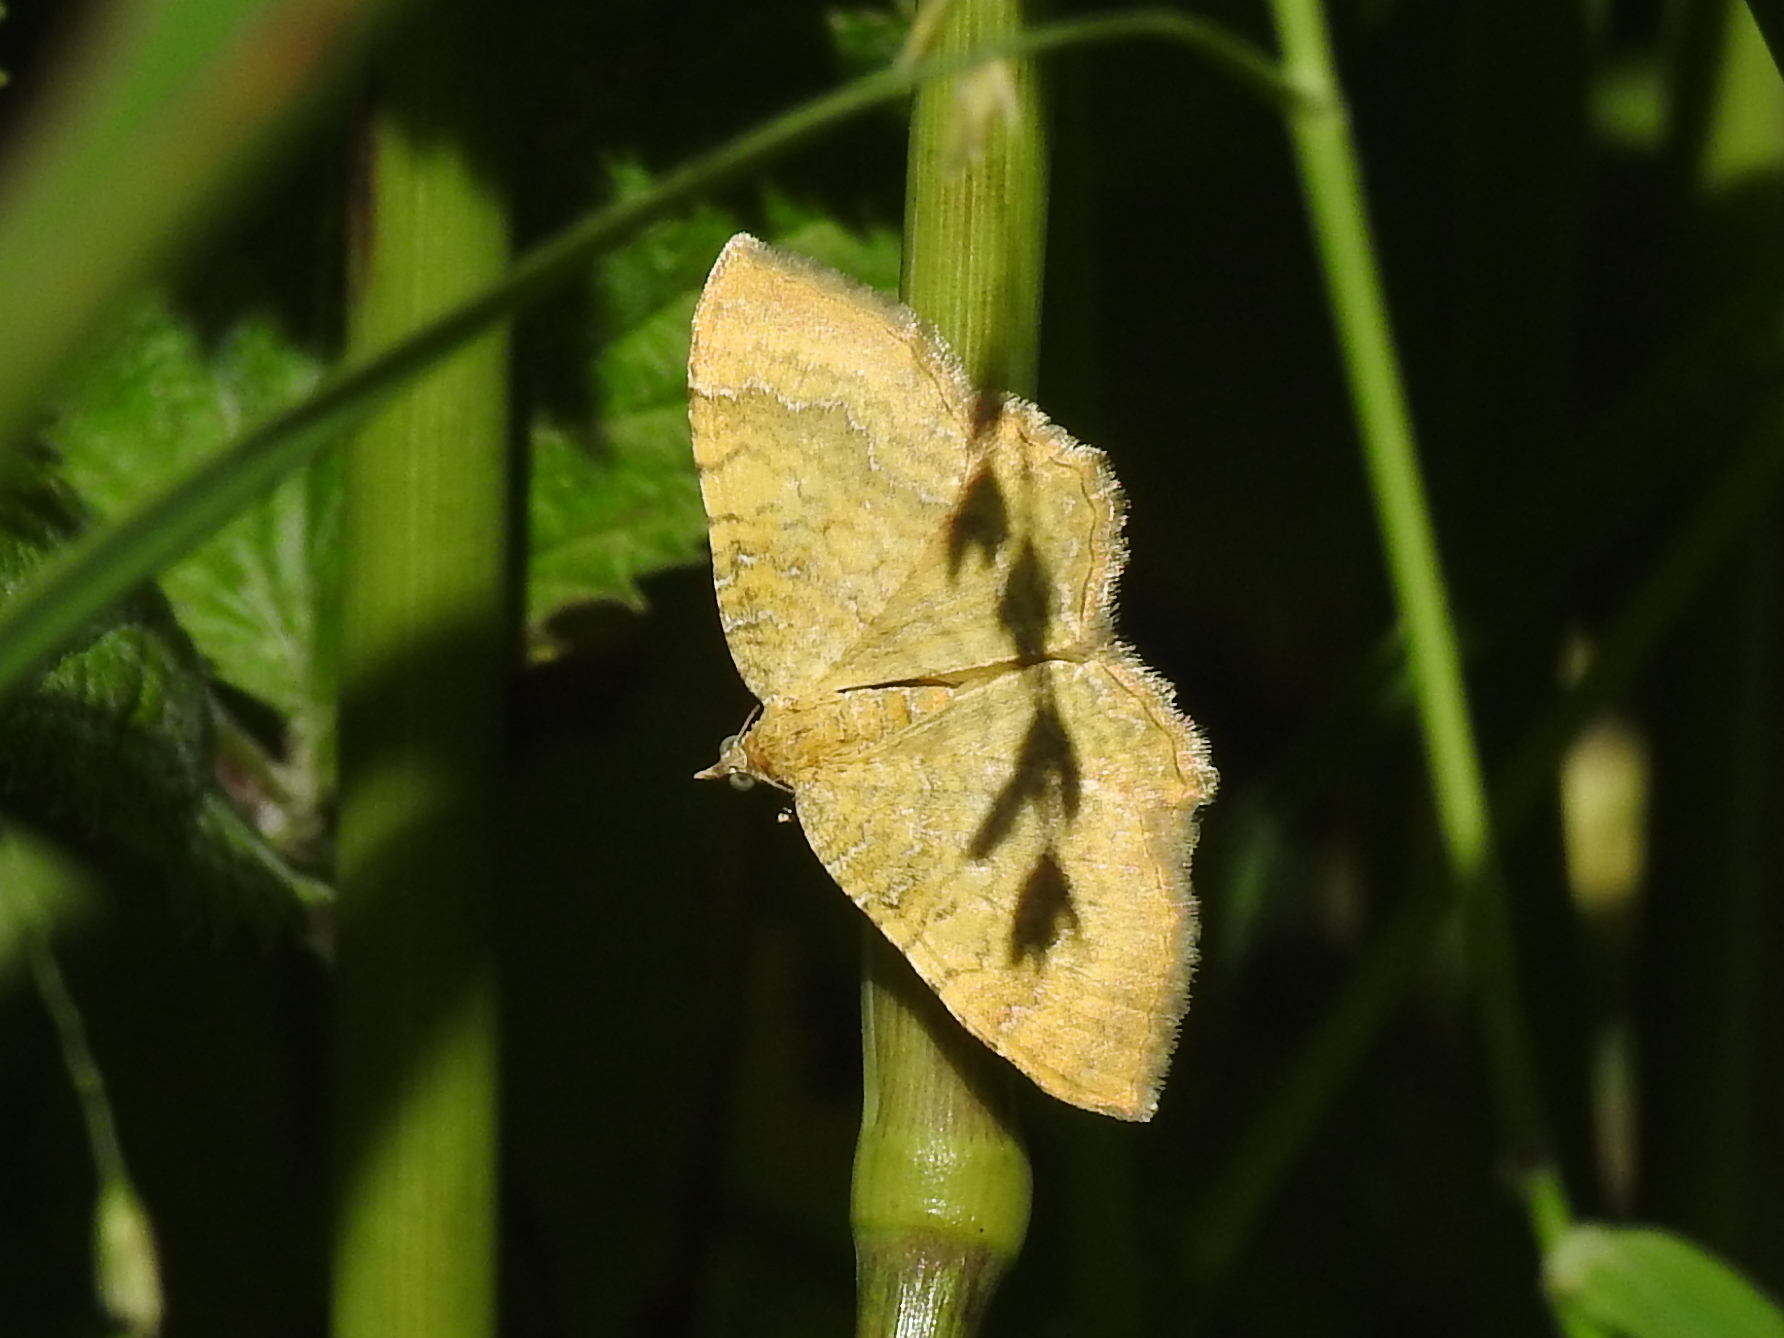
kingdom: Animalia
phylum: Arthropoda
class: Insecta
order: Lepidoptera
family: Geometridae
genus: Camptogramma
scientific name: Camptogramma bilineata
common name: Yellow shell
